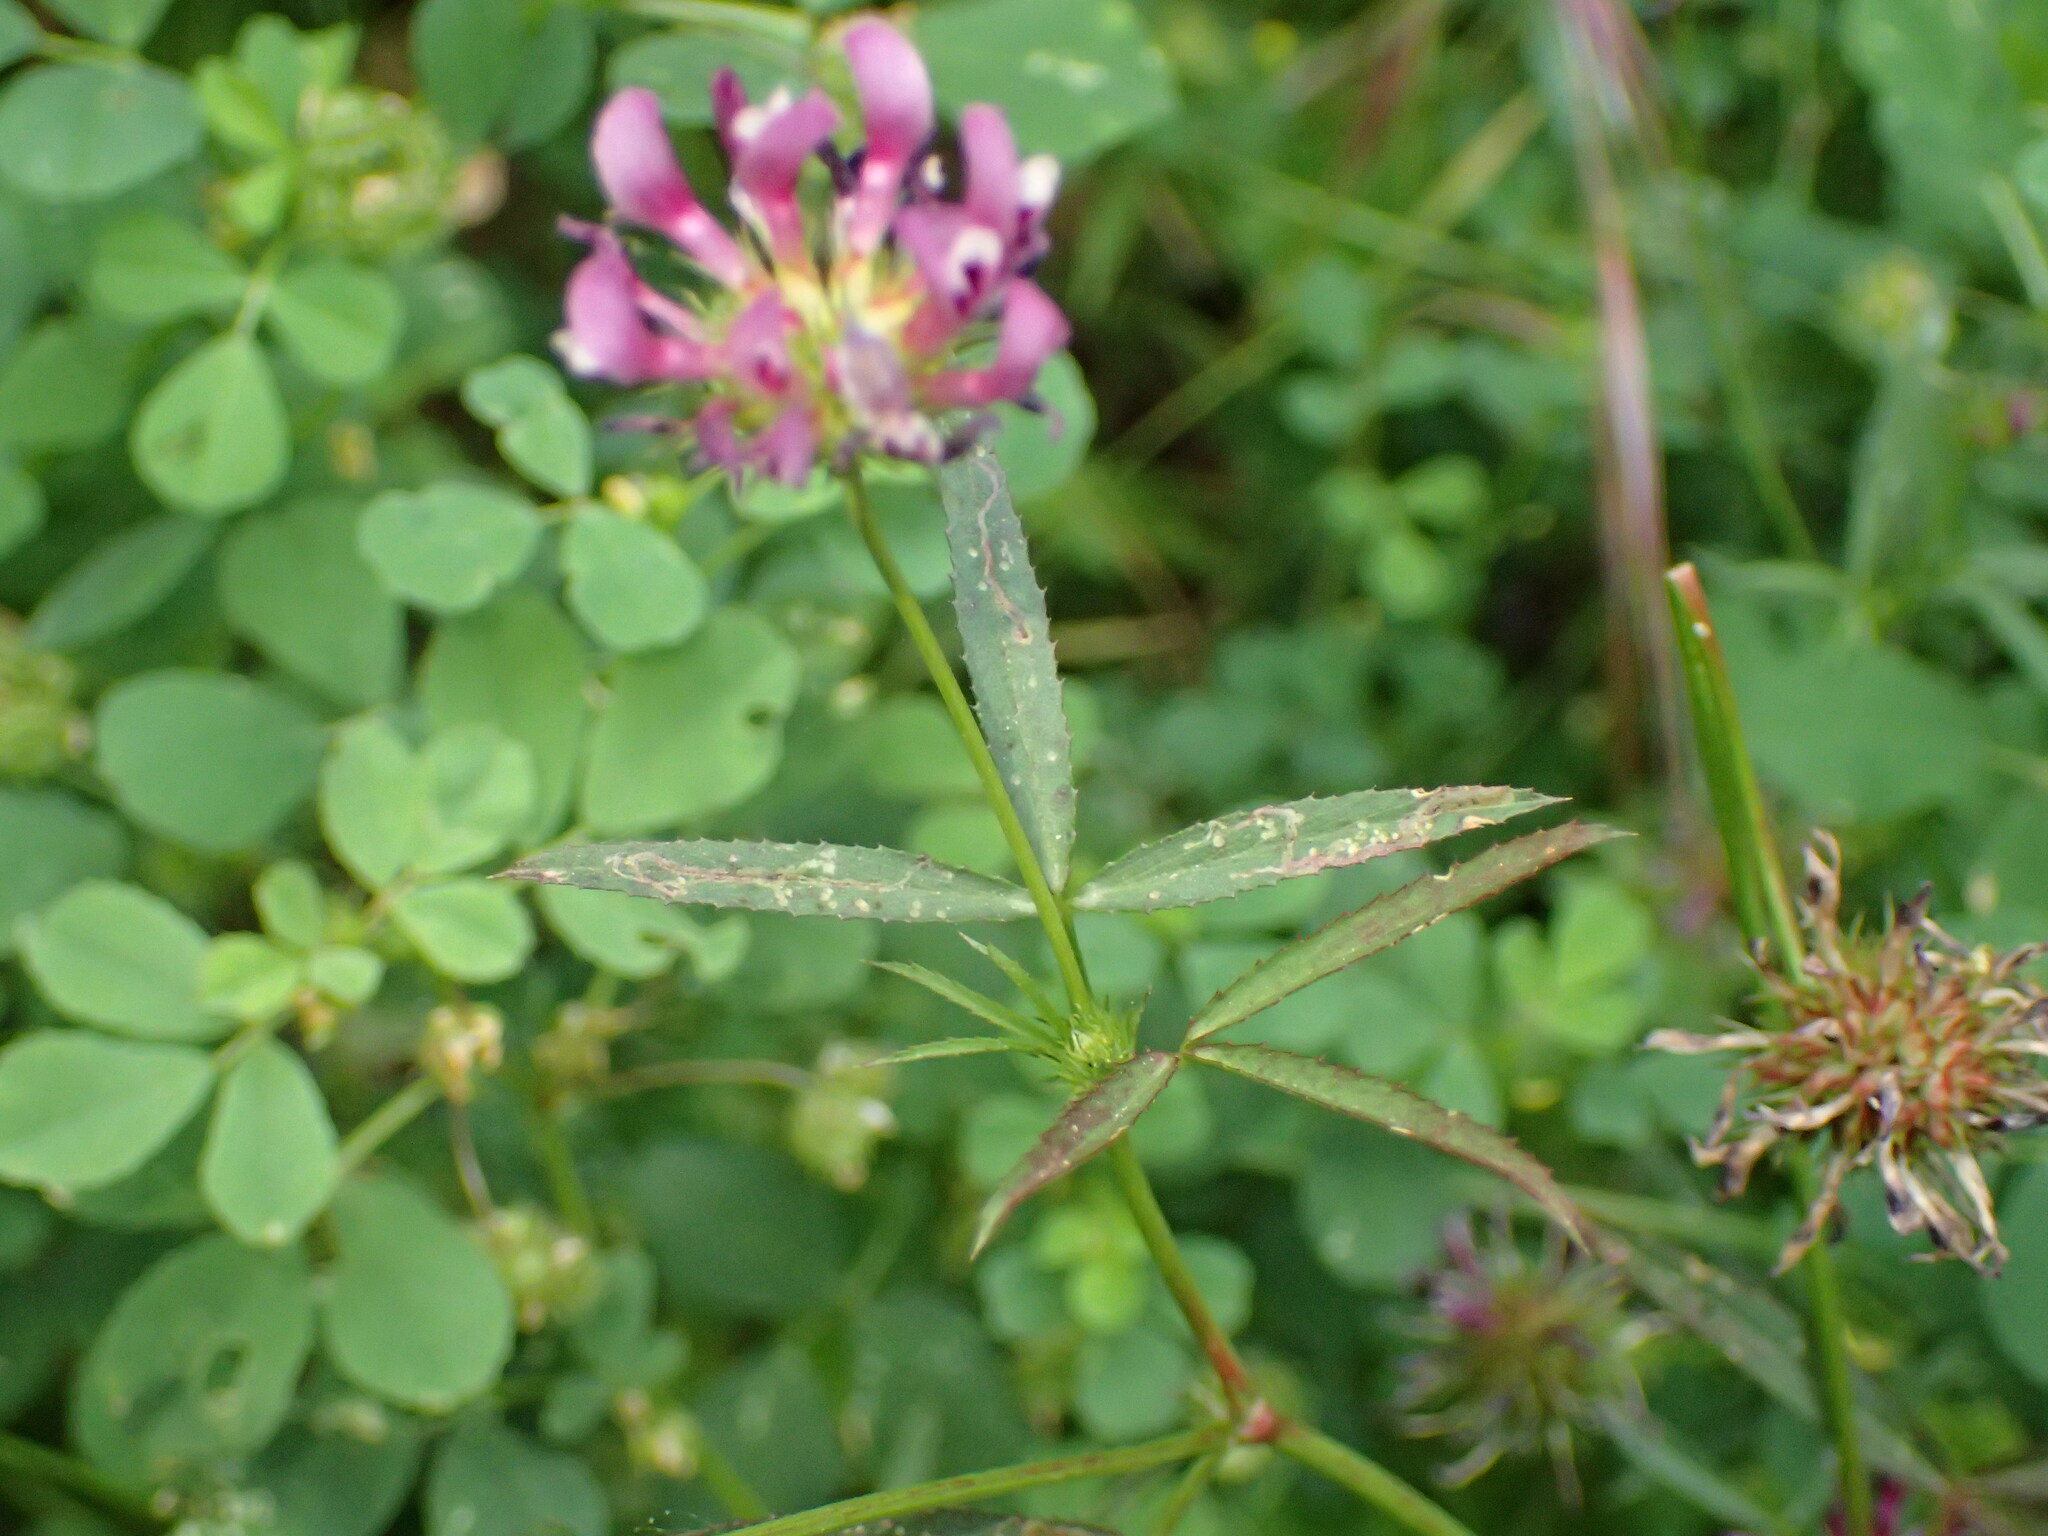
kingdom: Plantae
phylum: Tracheophyta
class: Magnoliopsida
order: Fabales
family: Fabaceae
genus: Trifolium
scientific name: Trifolium willdenovii
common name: Tomcat clover
